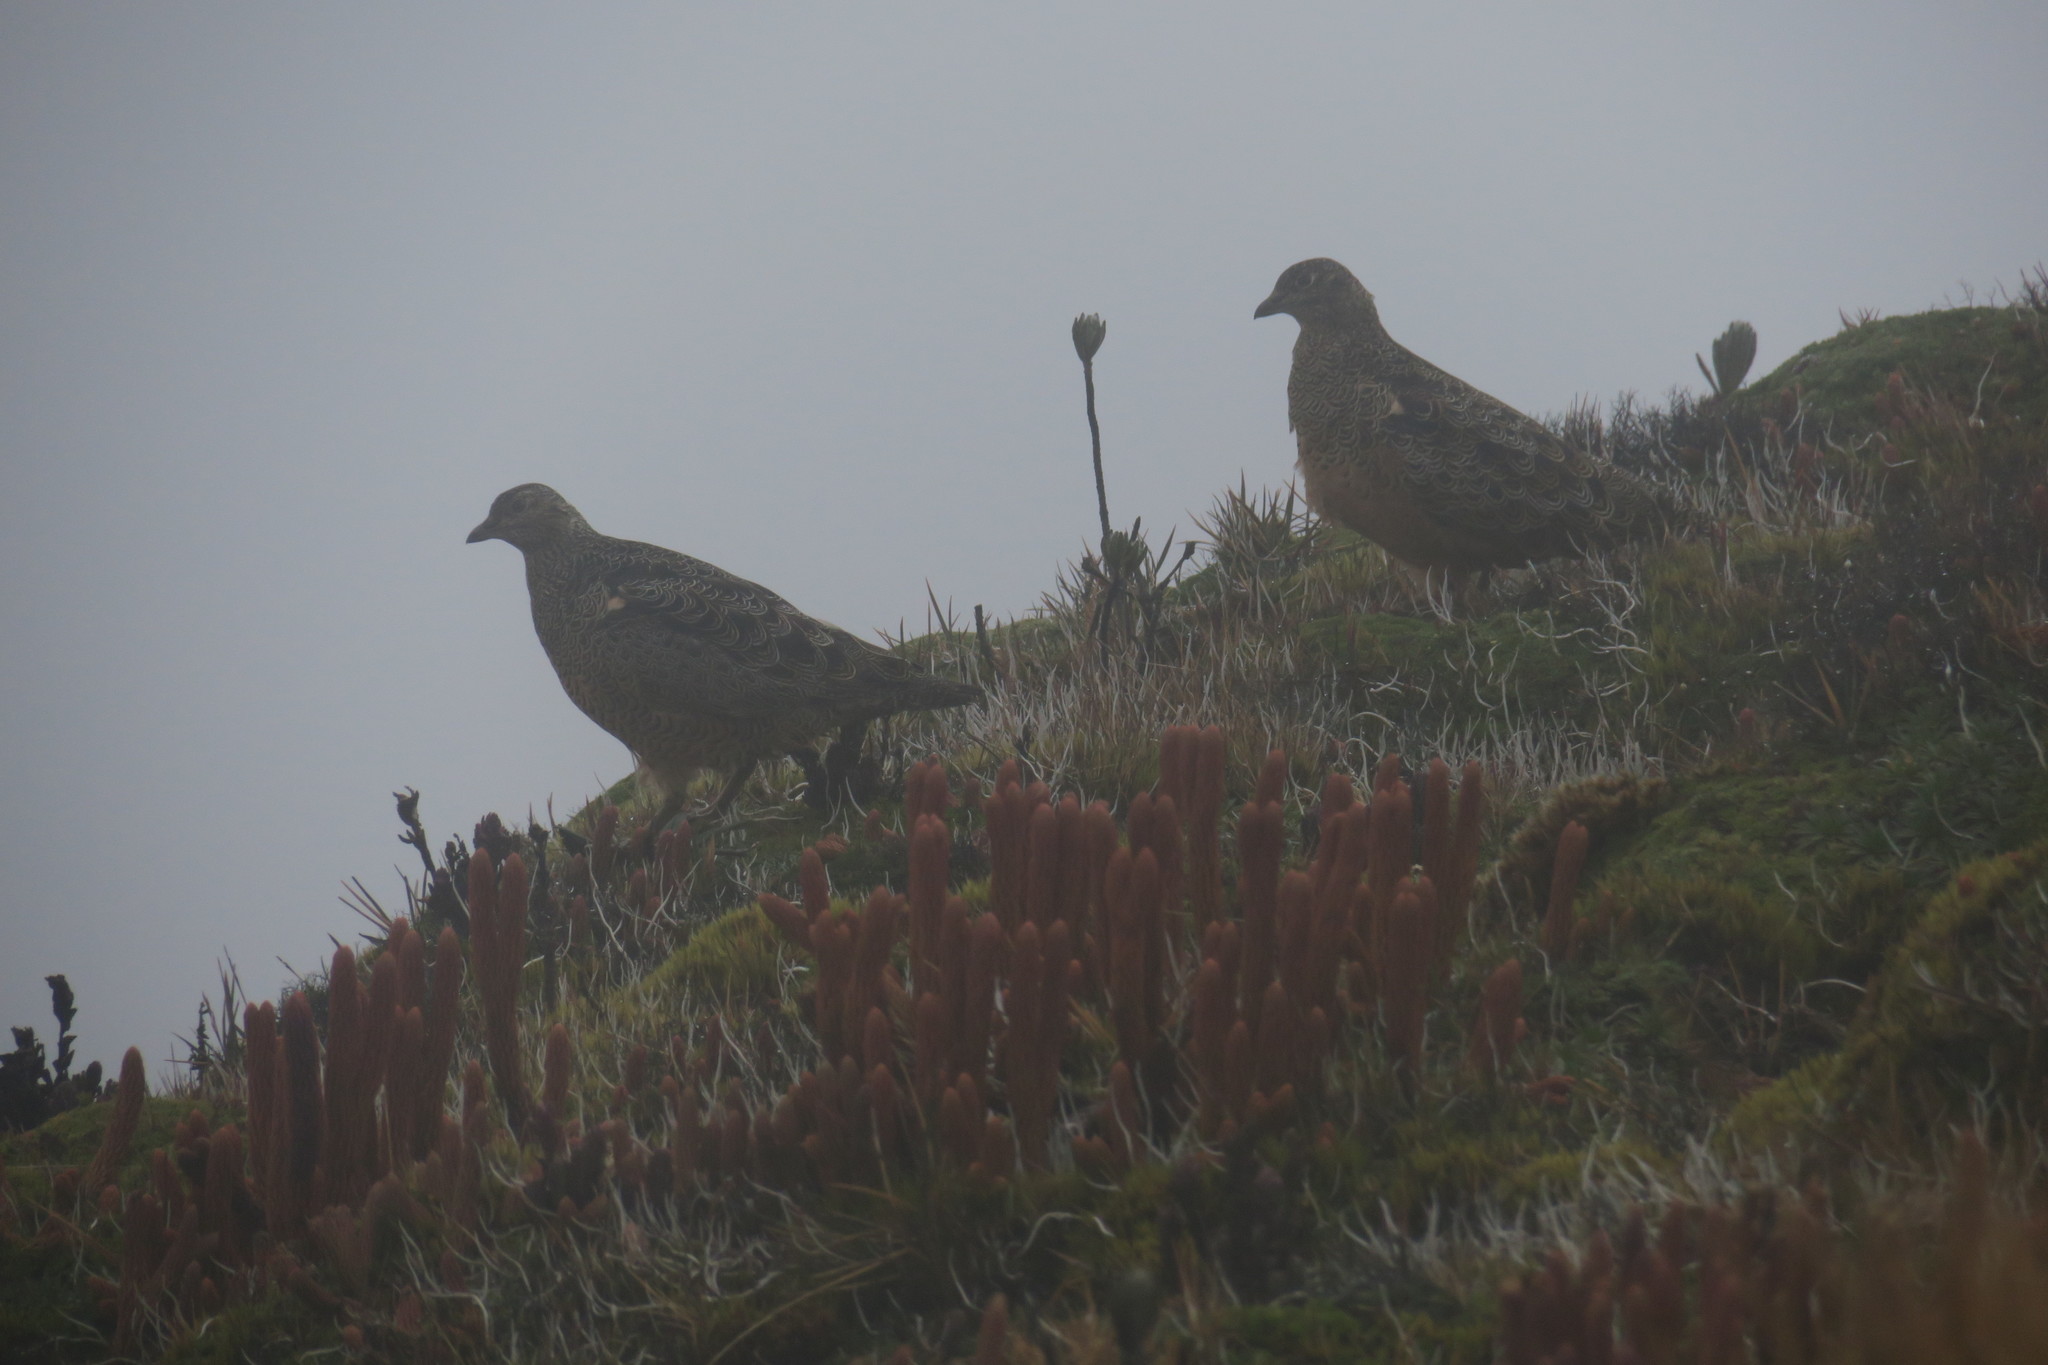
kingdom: Animalia
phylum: Chordata
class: Aves
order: Charadriiformes
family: Thinocoridae
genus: Attagis
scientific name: Attagis gayi
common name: Rufous-bellied seedsnipe
